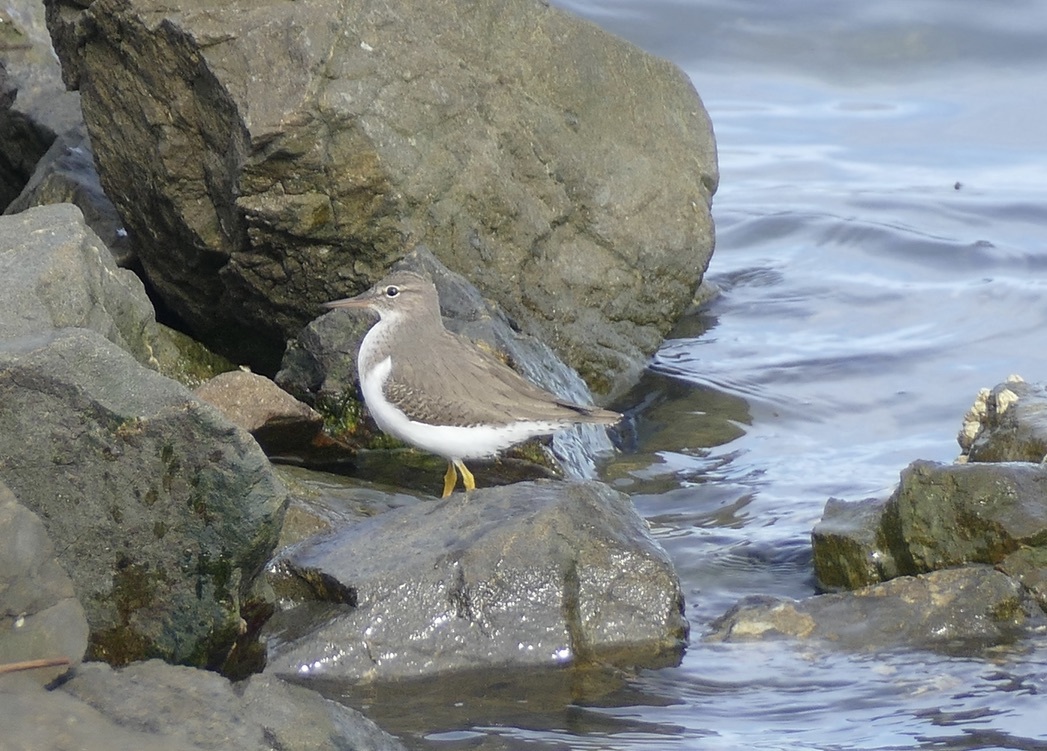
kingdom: Animalia
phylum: Chordata
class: Aves
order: Charadriiformes
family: Scolopacidae
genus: Actitis
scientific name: Actitis macularius
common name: Spotted sandpiper
